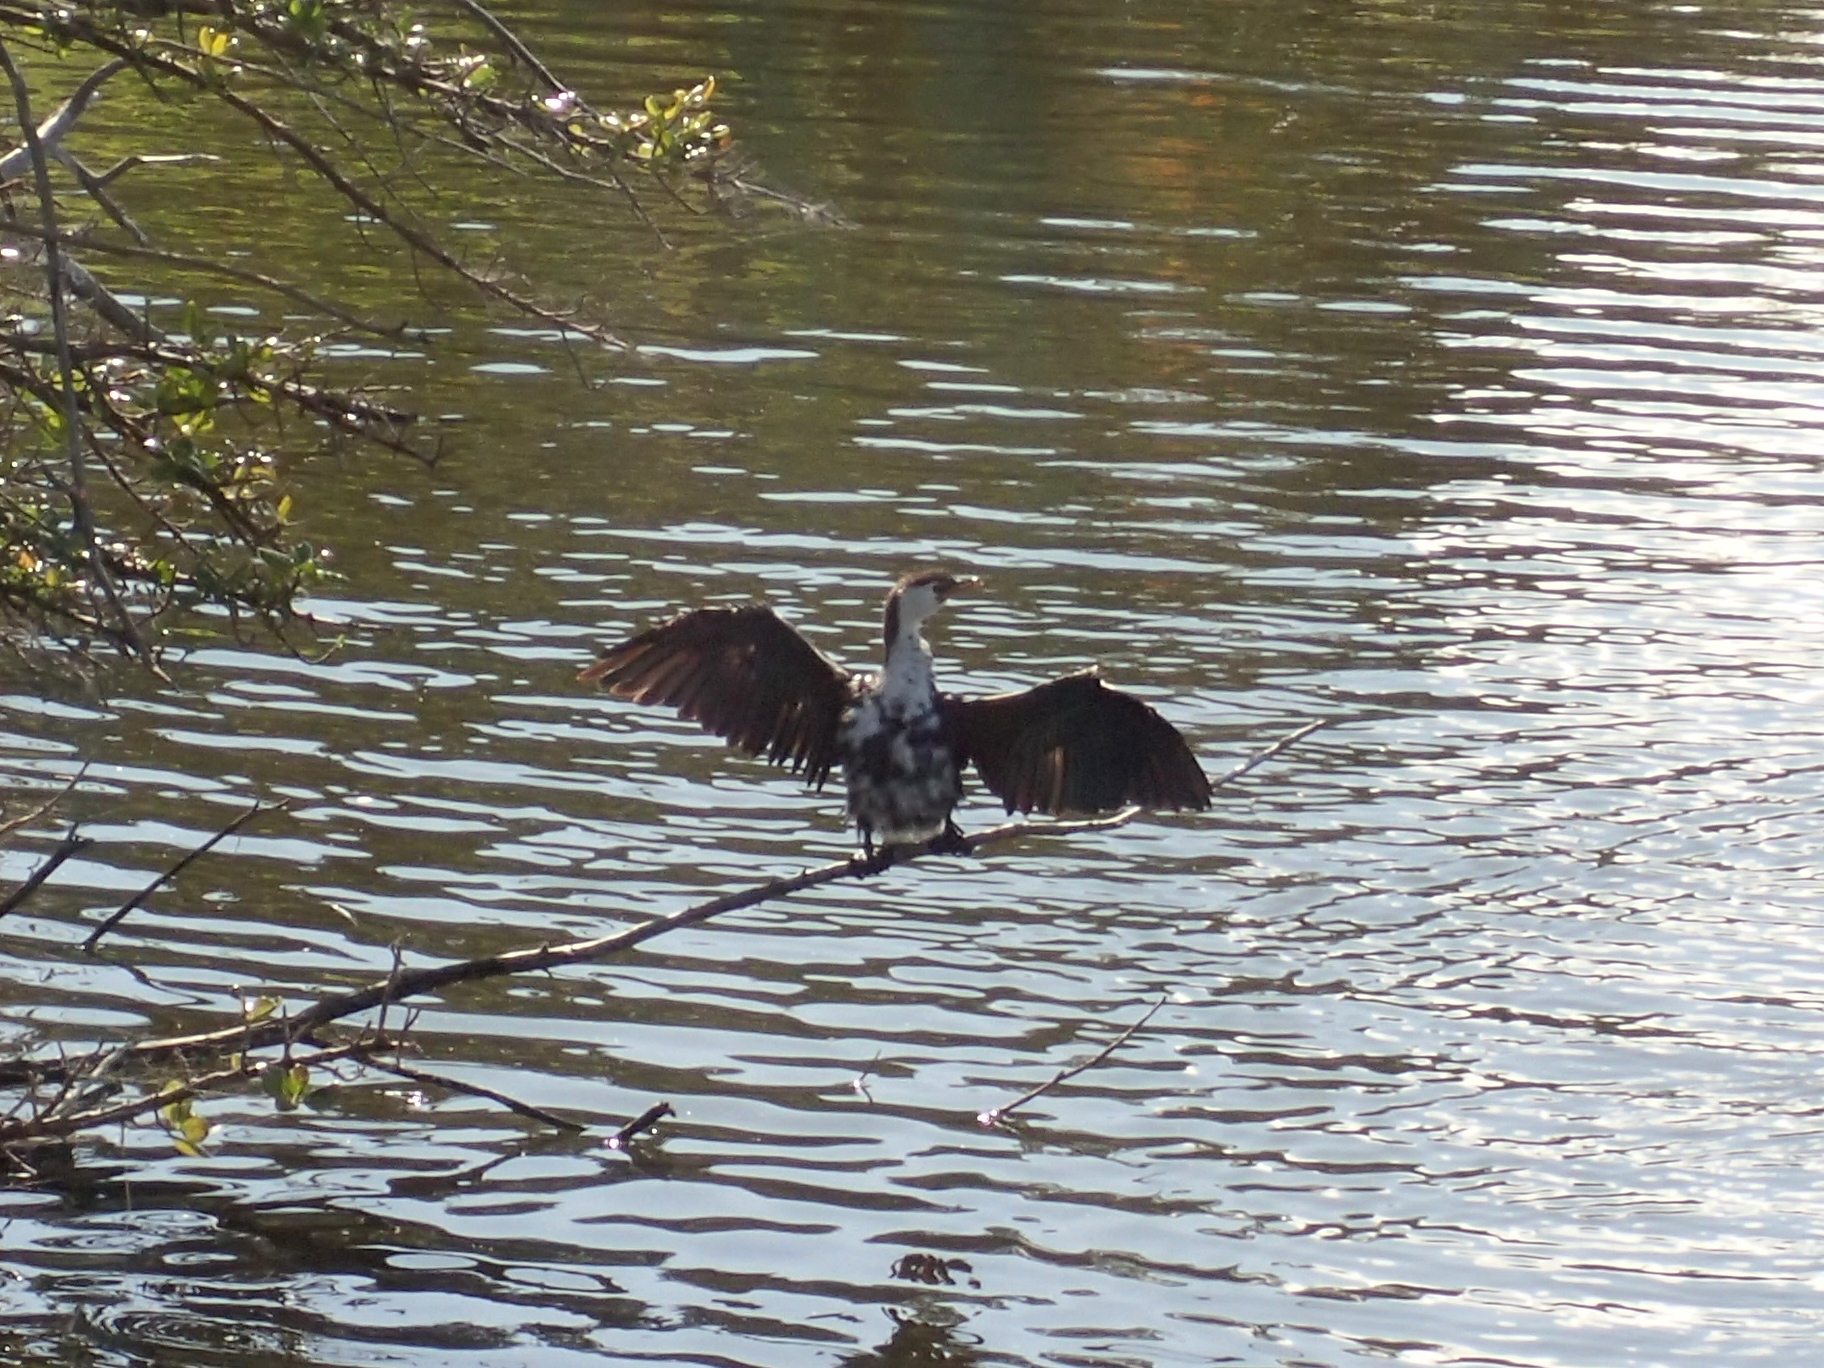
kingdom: Animalia
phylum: Chordata
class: Aves
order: Suliformes
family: Phalacrocoracidae
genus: Microcarbo
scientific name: Microcarbo melanoleucos
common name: Little pied cormorant
